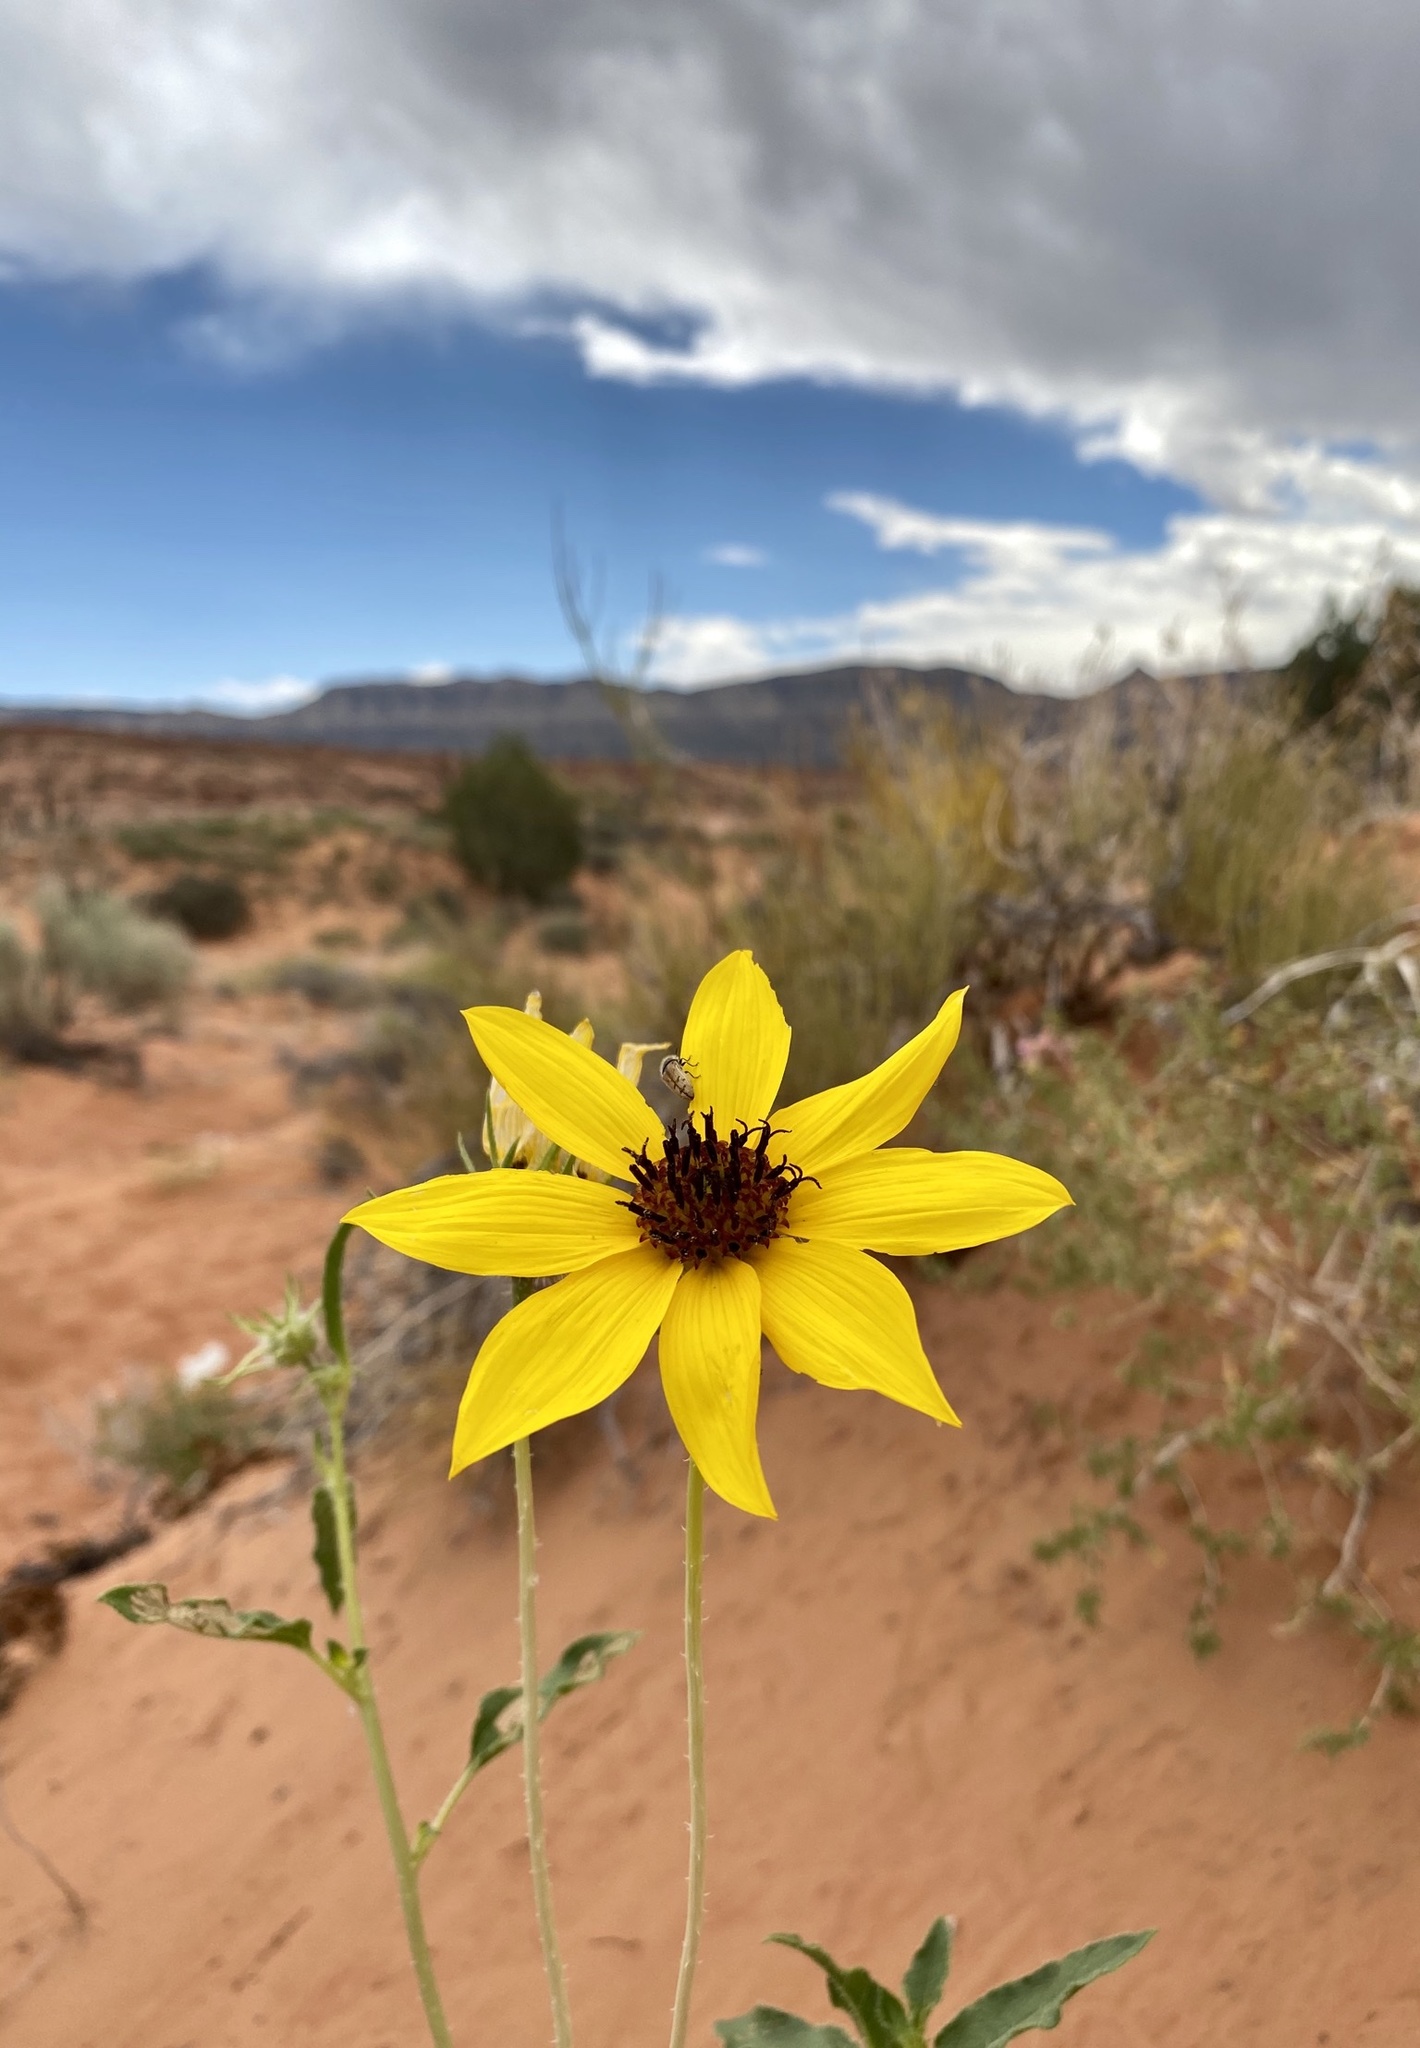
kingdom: Plantae
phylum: Tracheophyta
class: Magnoliopsida
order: Asterales
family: Asteraceae
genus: Helianthus
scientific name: Helianthus anomalus
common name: Sand sunflower
